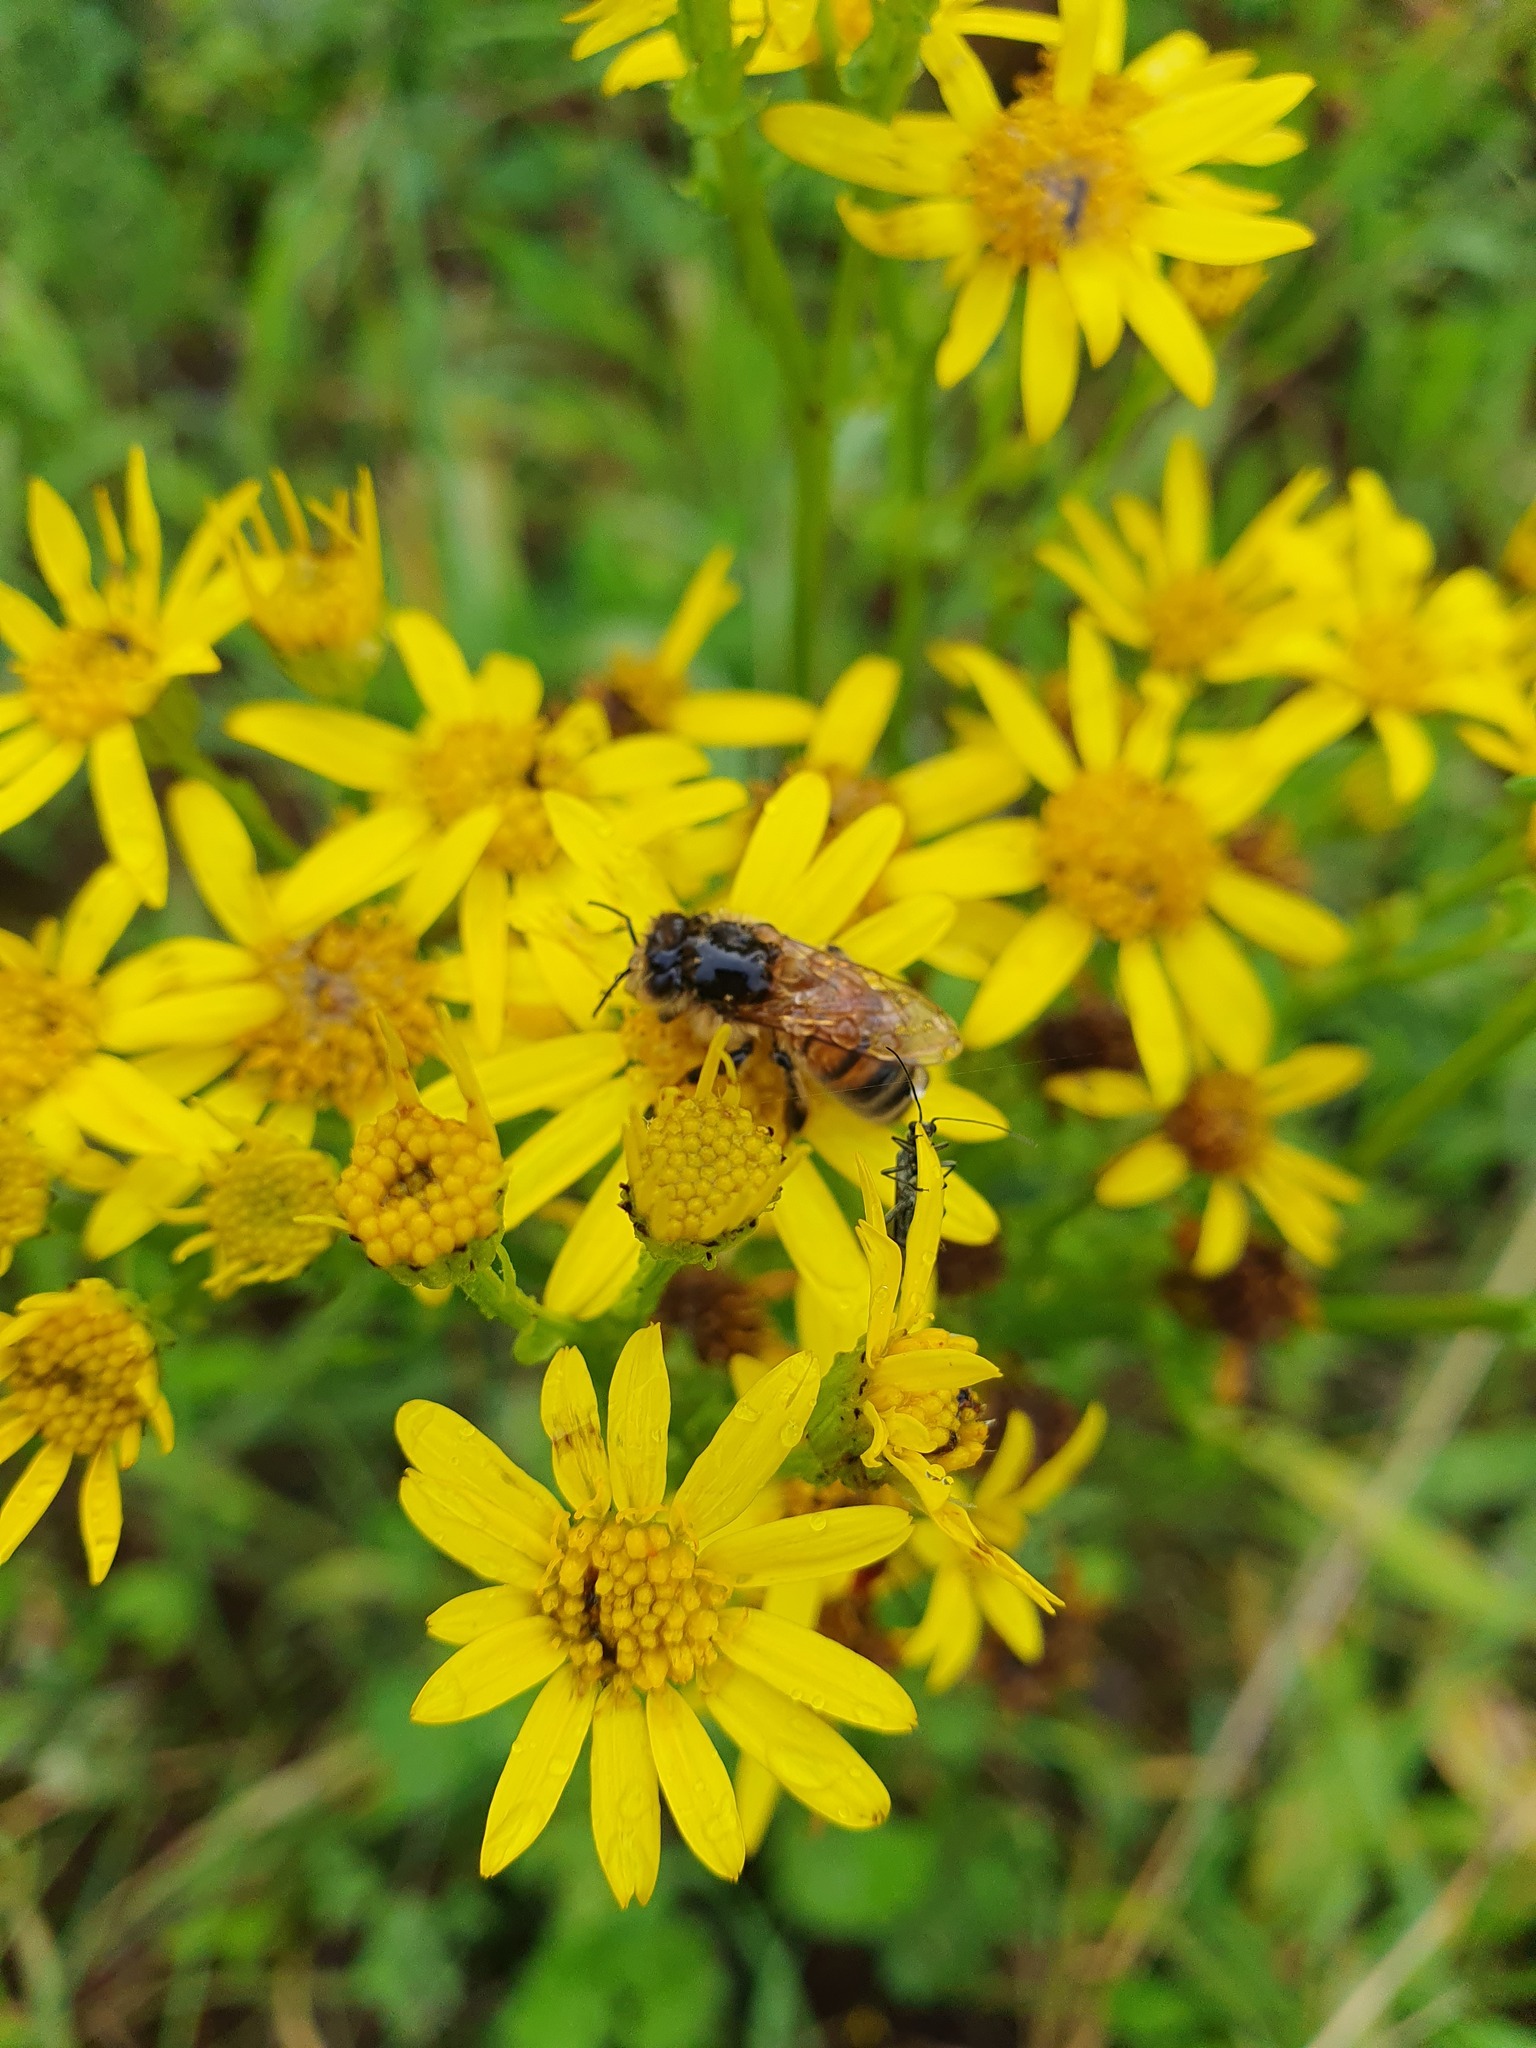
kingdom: Animalia
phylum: Arthropoda
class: Insecta
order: Hymenoptera
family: Apidae
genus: Apis
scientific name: Apis mellifera
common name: Honey bee
